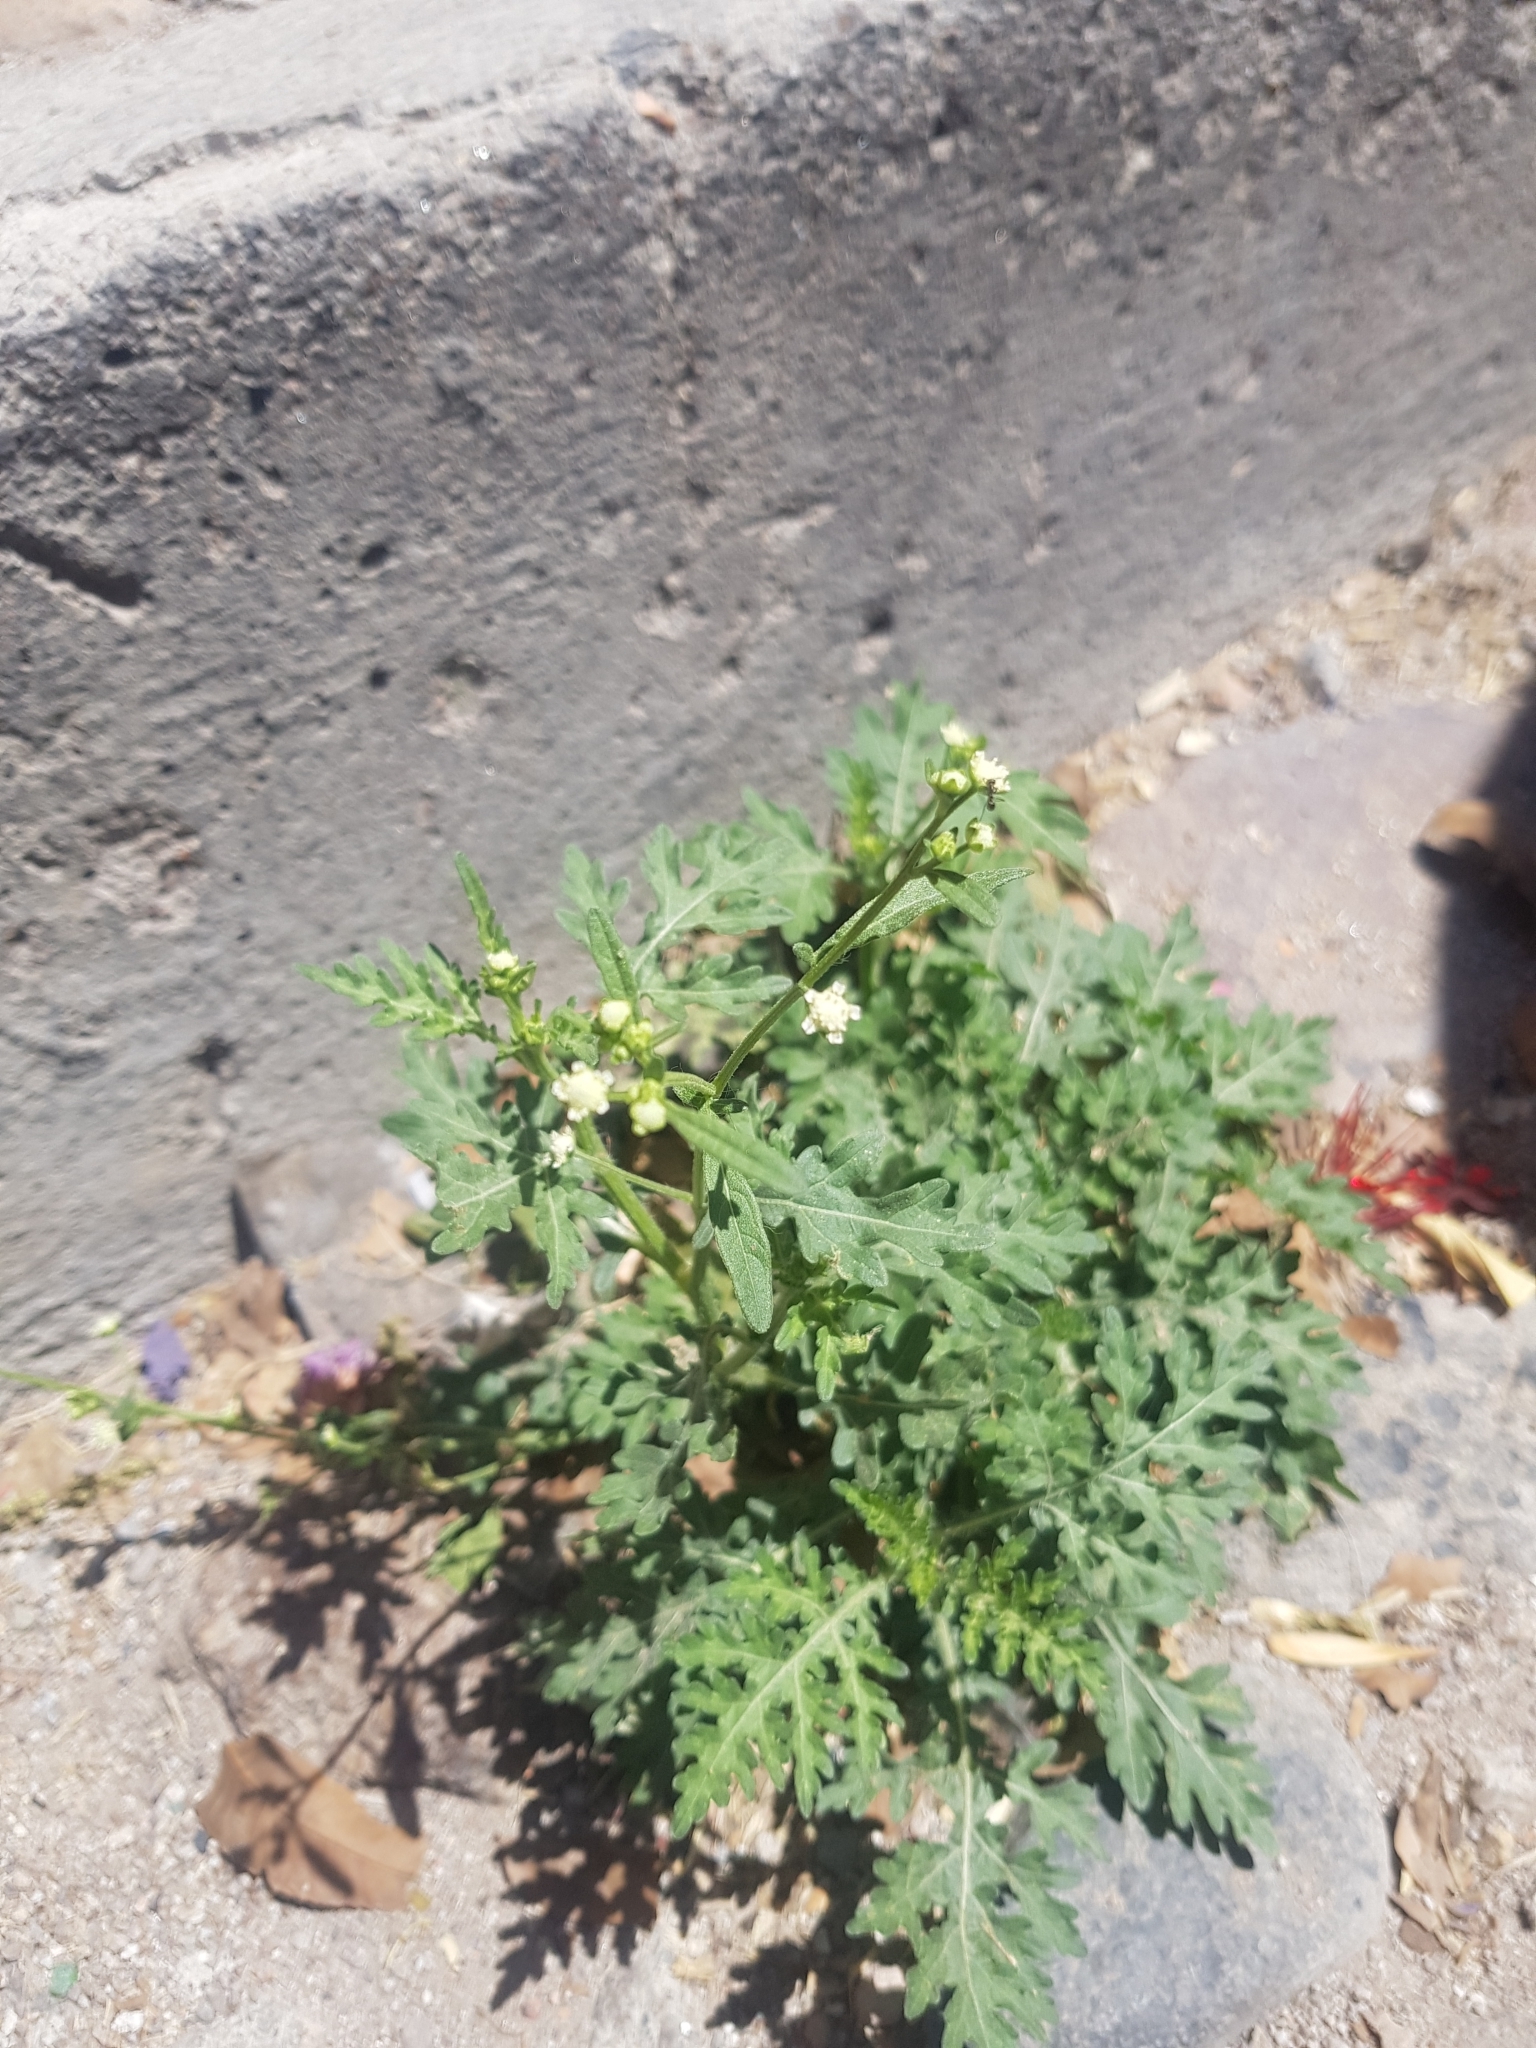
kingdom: Plantae
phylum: Tracheophyta
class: Magnoliopsida
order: Asterales
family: Asteraceae
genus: Parthenium
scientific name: Parthenium hysterophorus
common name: Santa maria feverfew
